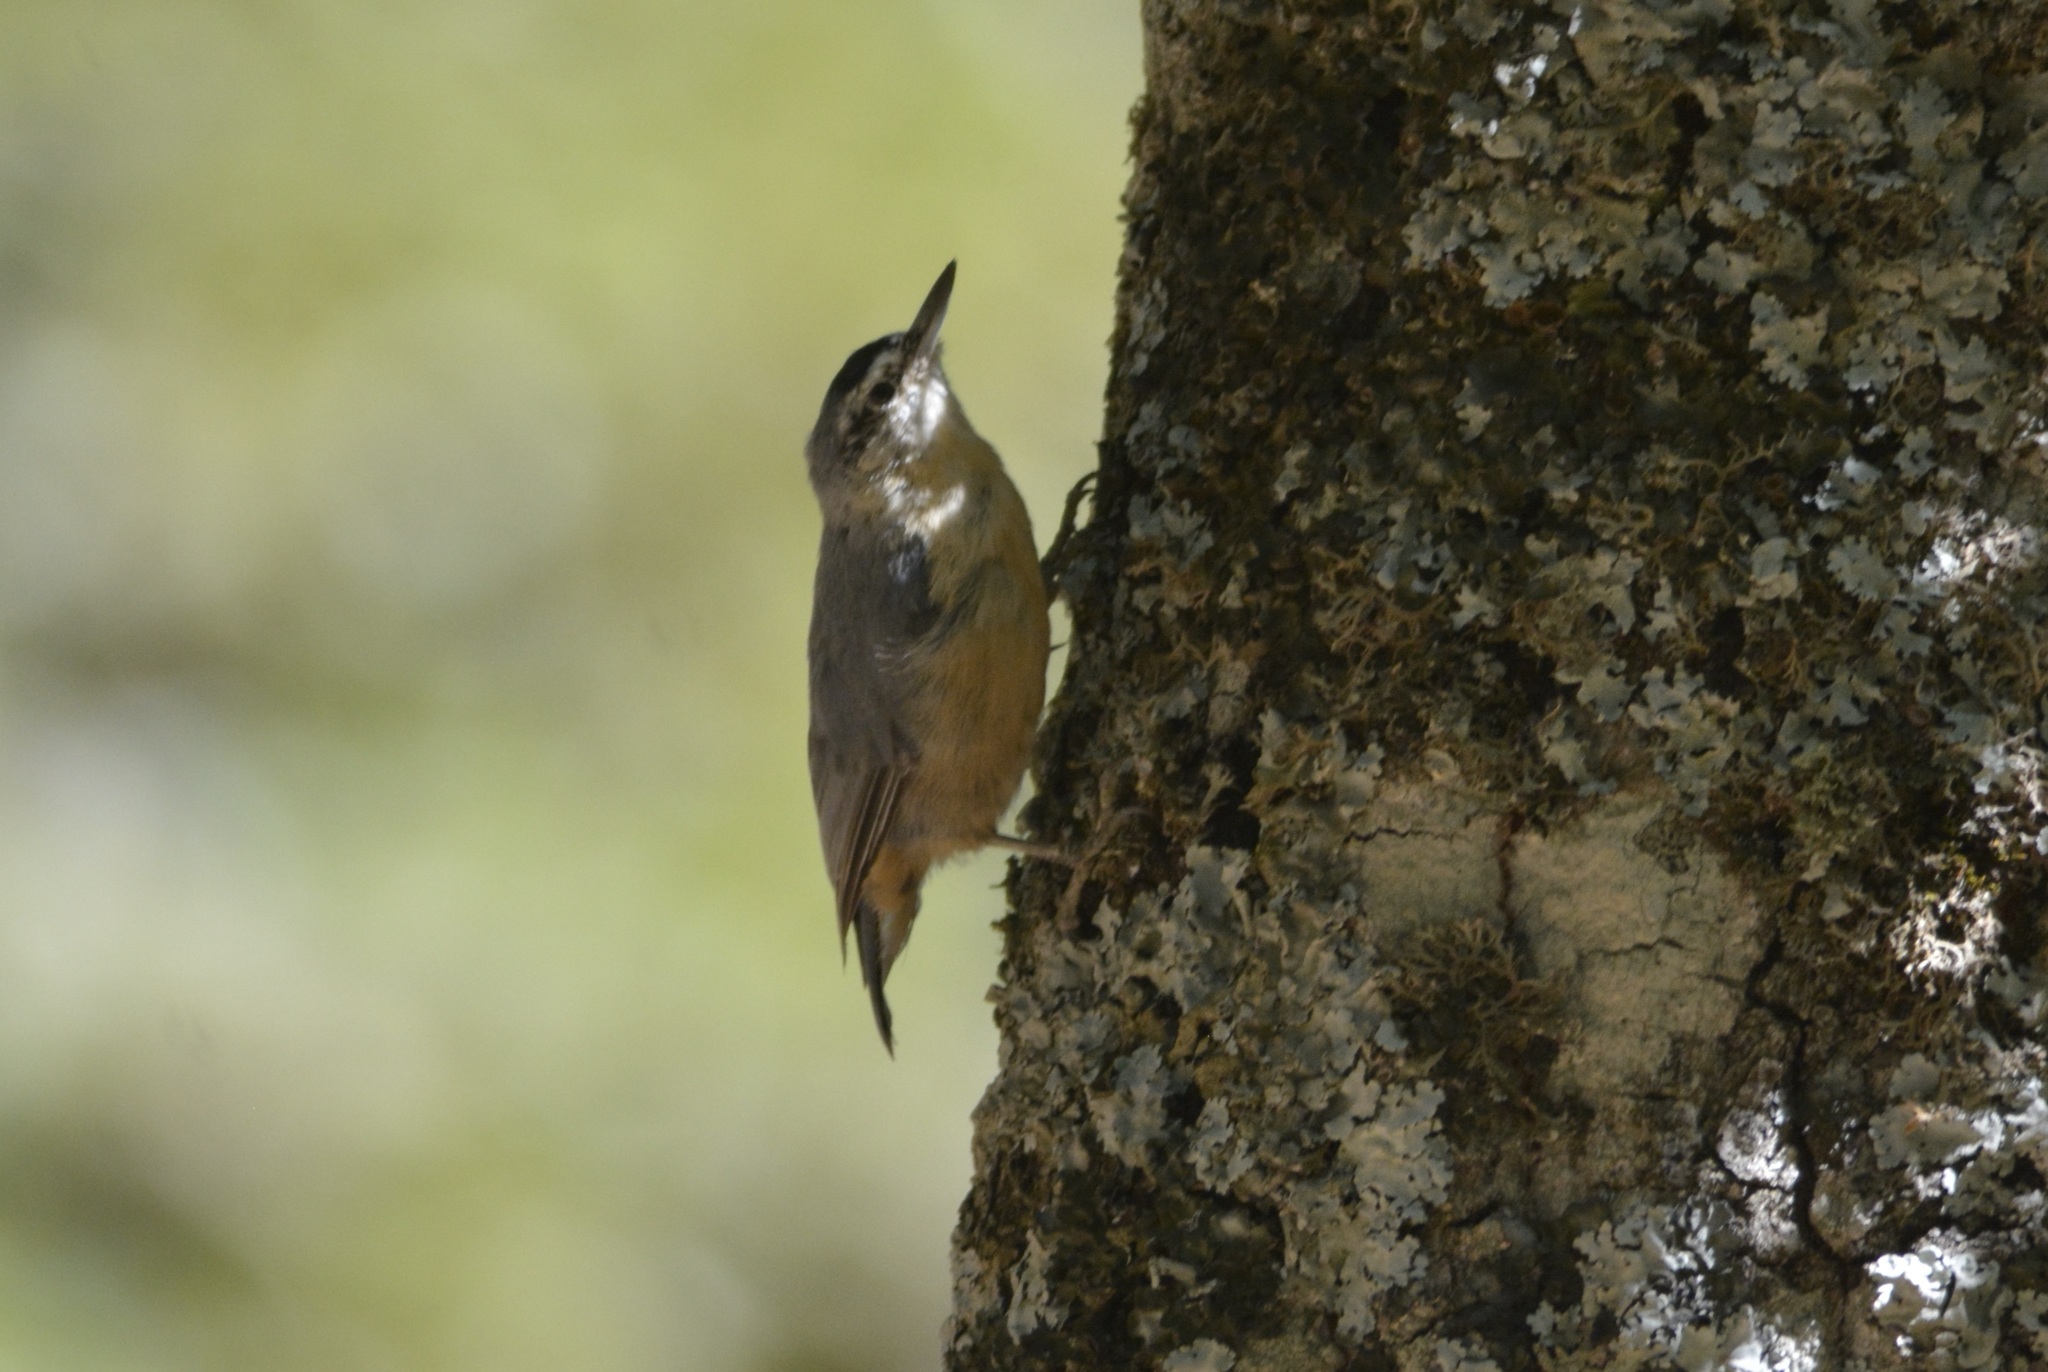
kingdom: Animalia
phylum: Chordata
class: Aves
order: Passeriformes
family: Sittidae
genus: Sitta
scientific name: Sitta ledanti
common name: Algerian nuthatch
